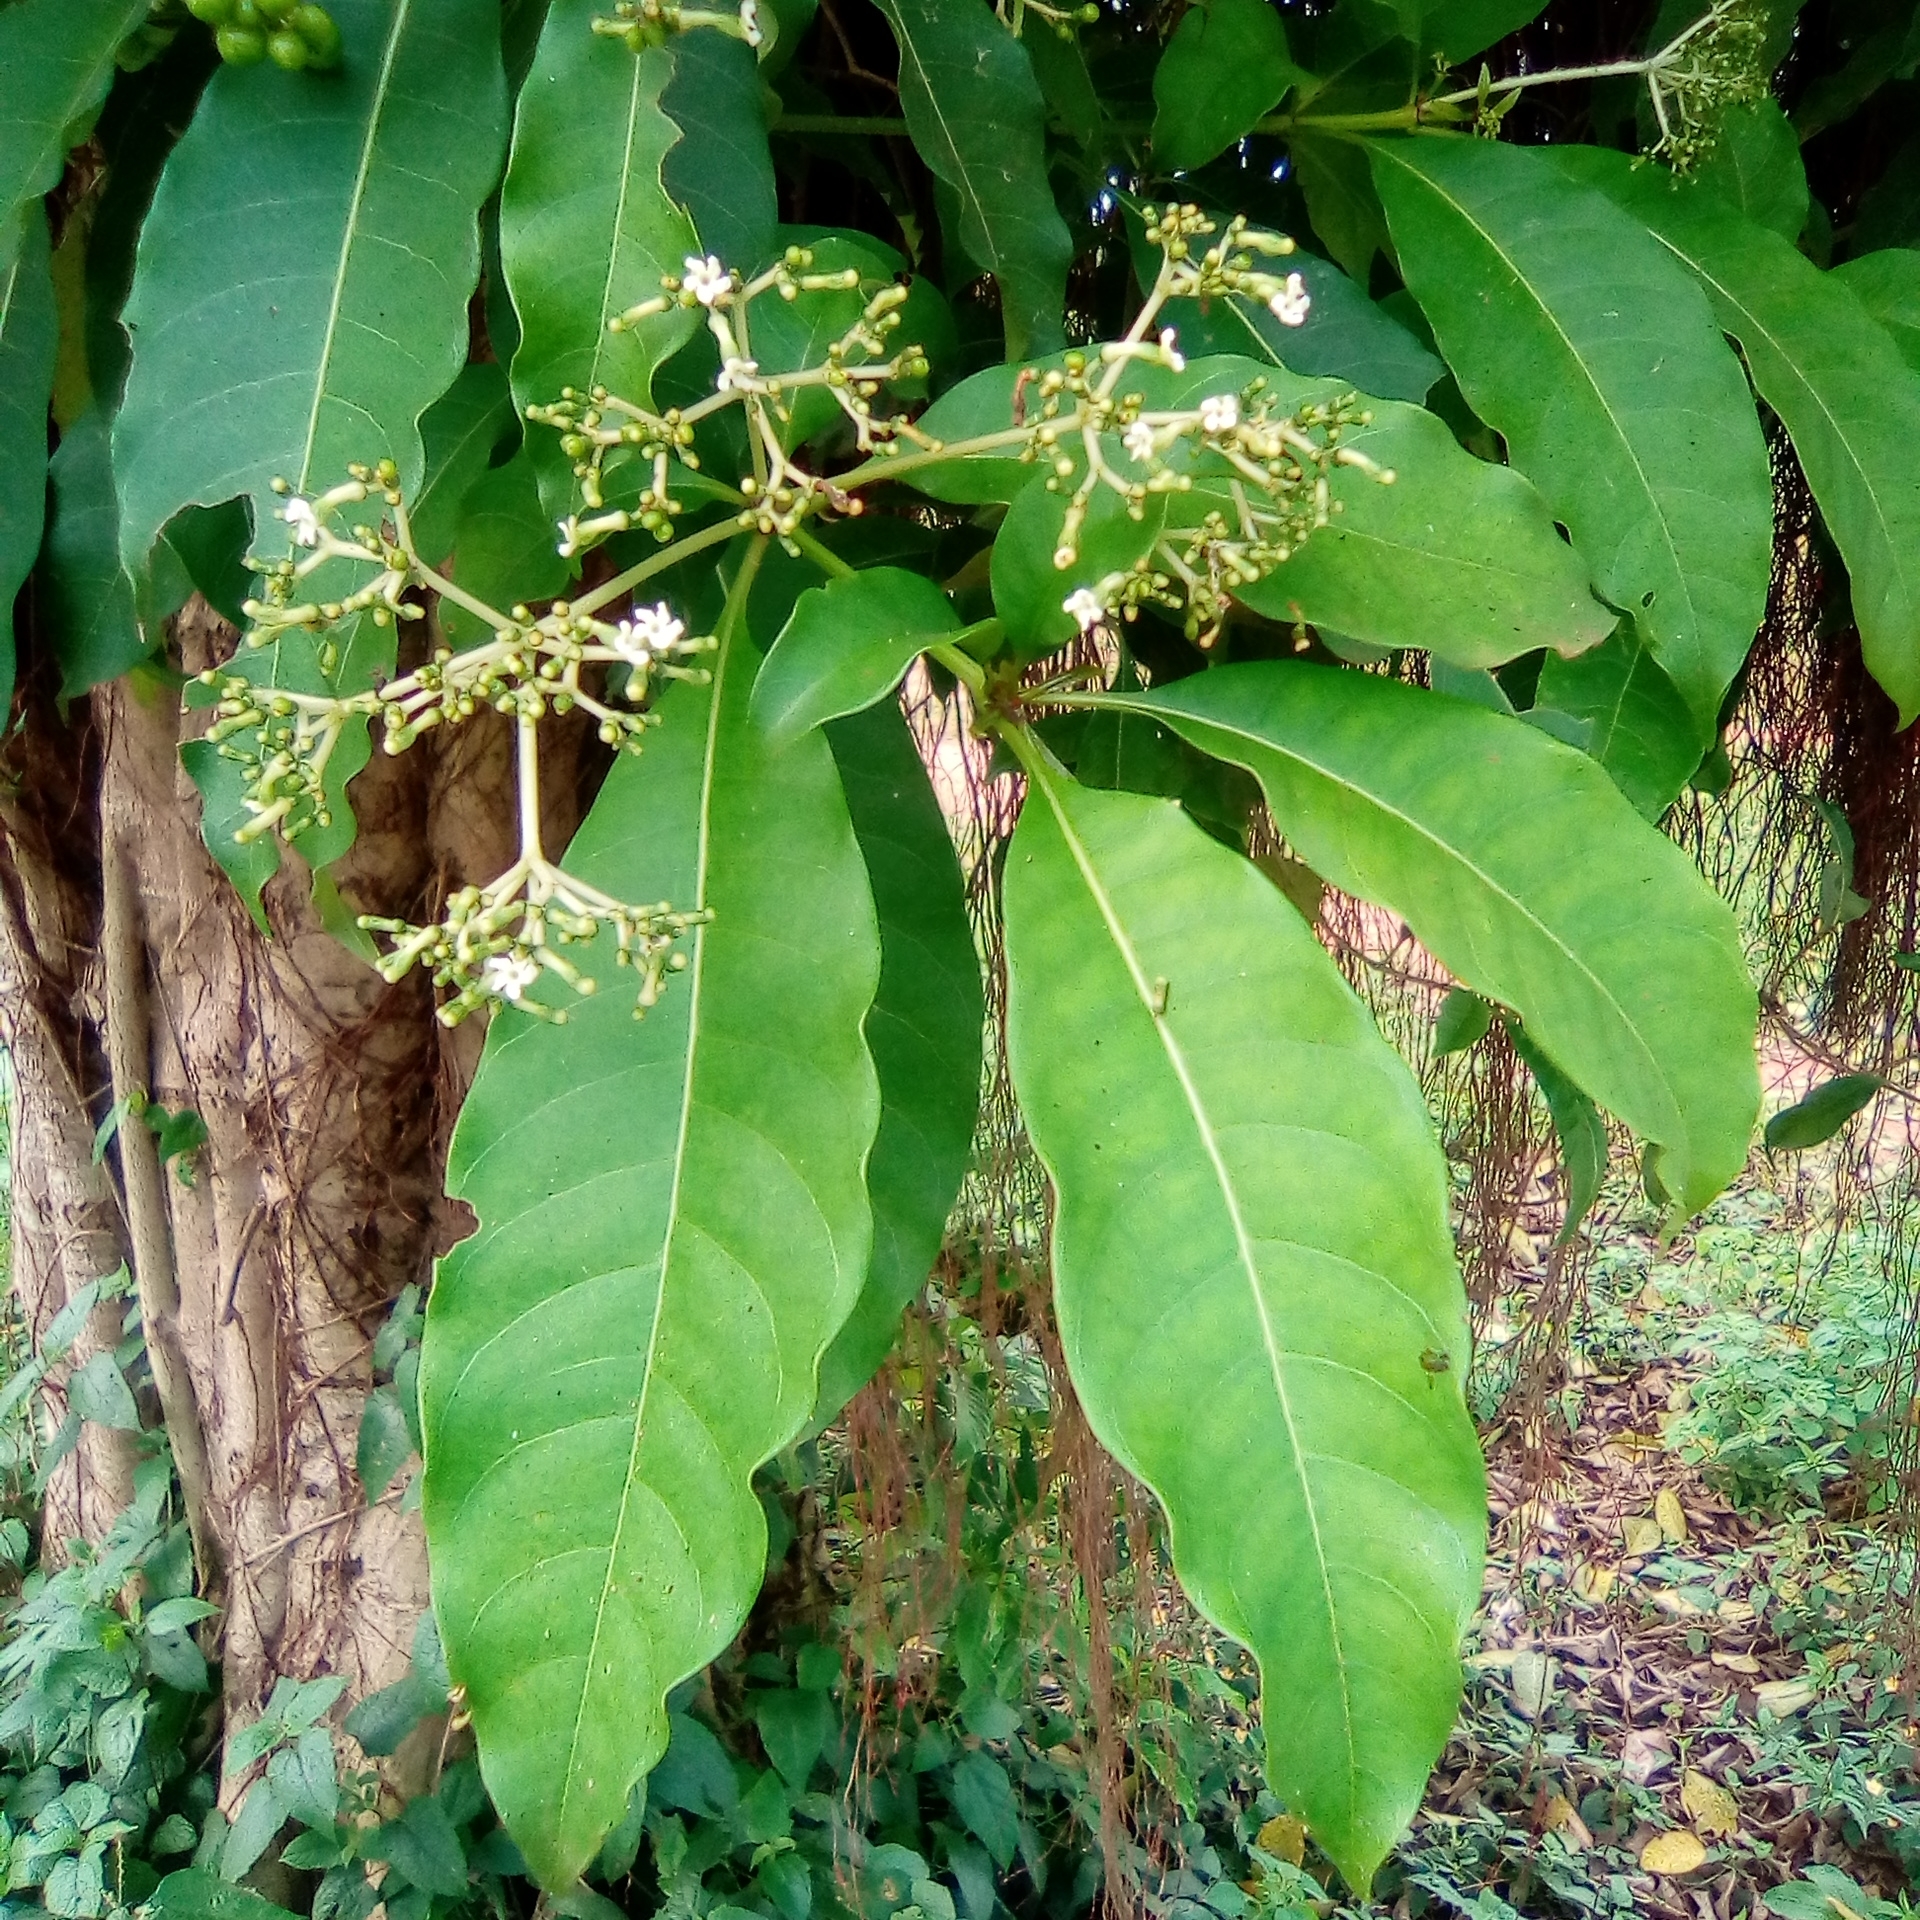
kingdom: Plantae
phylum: Tracheophyta
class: Magnoliopsida
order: Gentianales
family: Apocynaceae
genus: Rauvolfia
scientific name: Rauvolfia vomitoria
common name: Poison devil's-pepper
